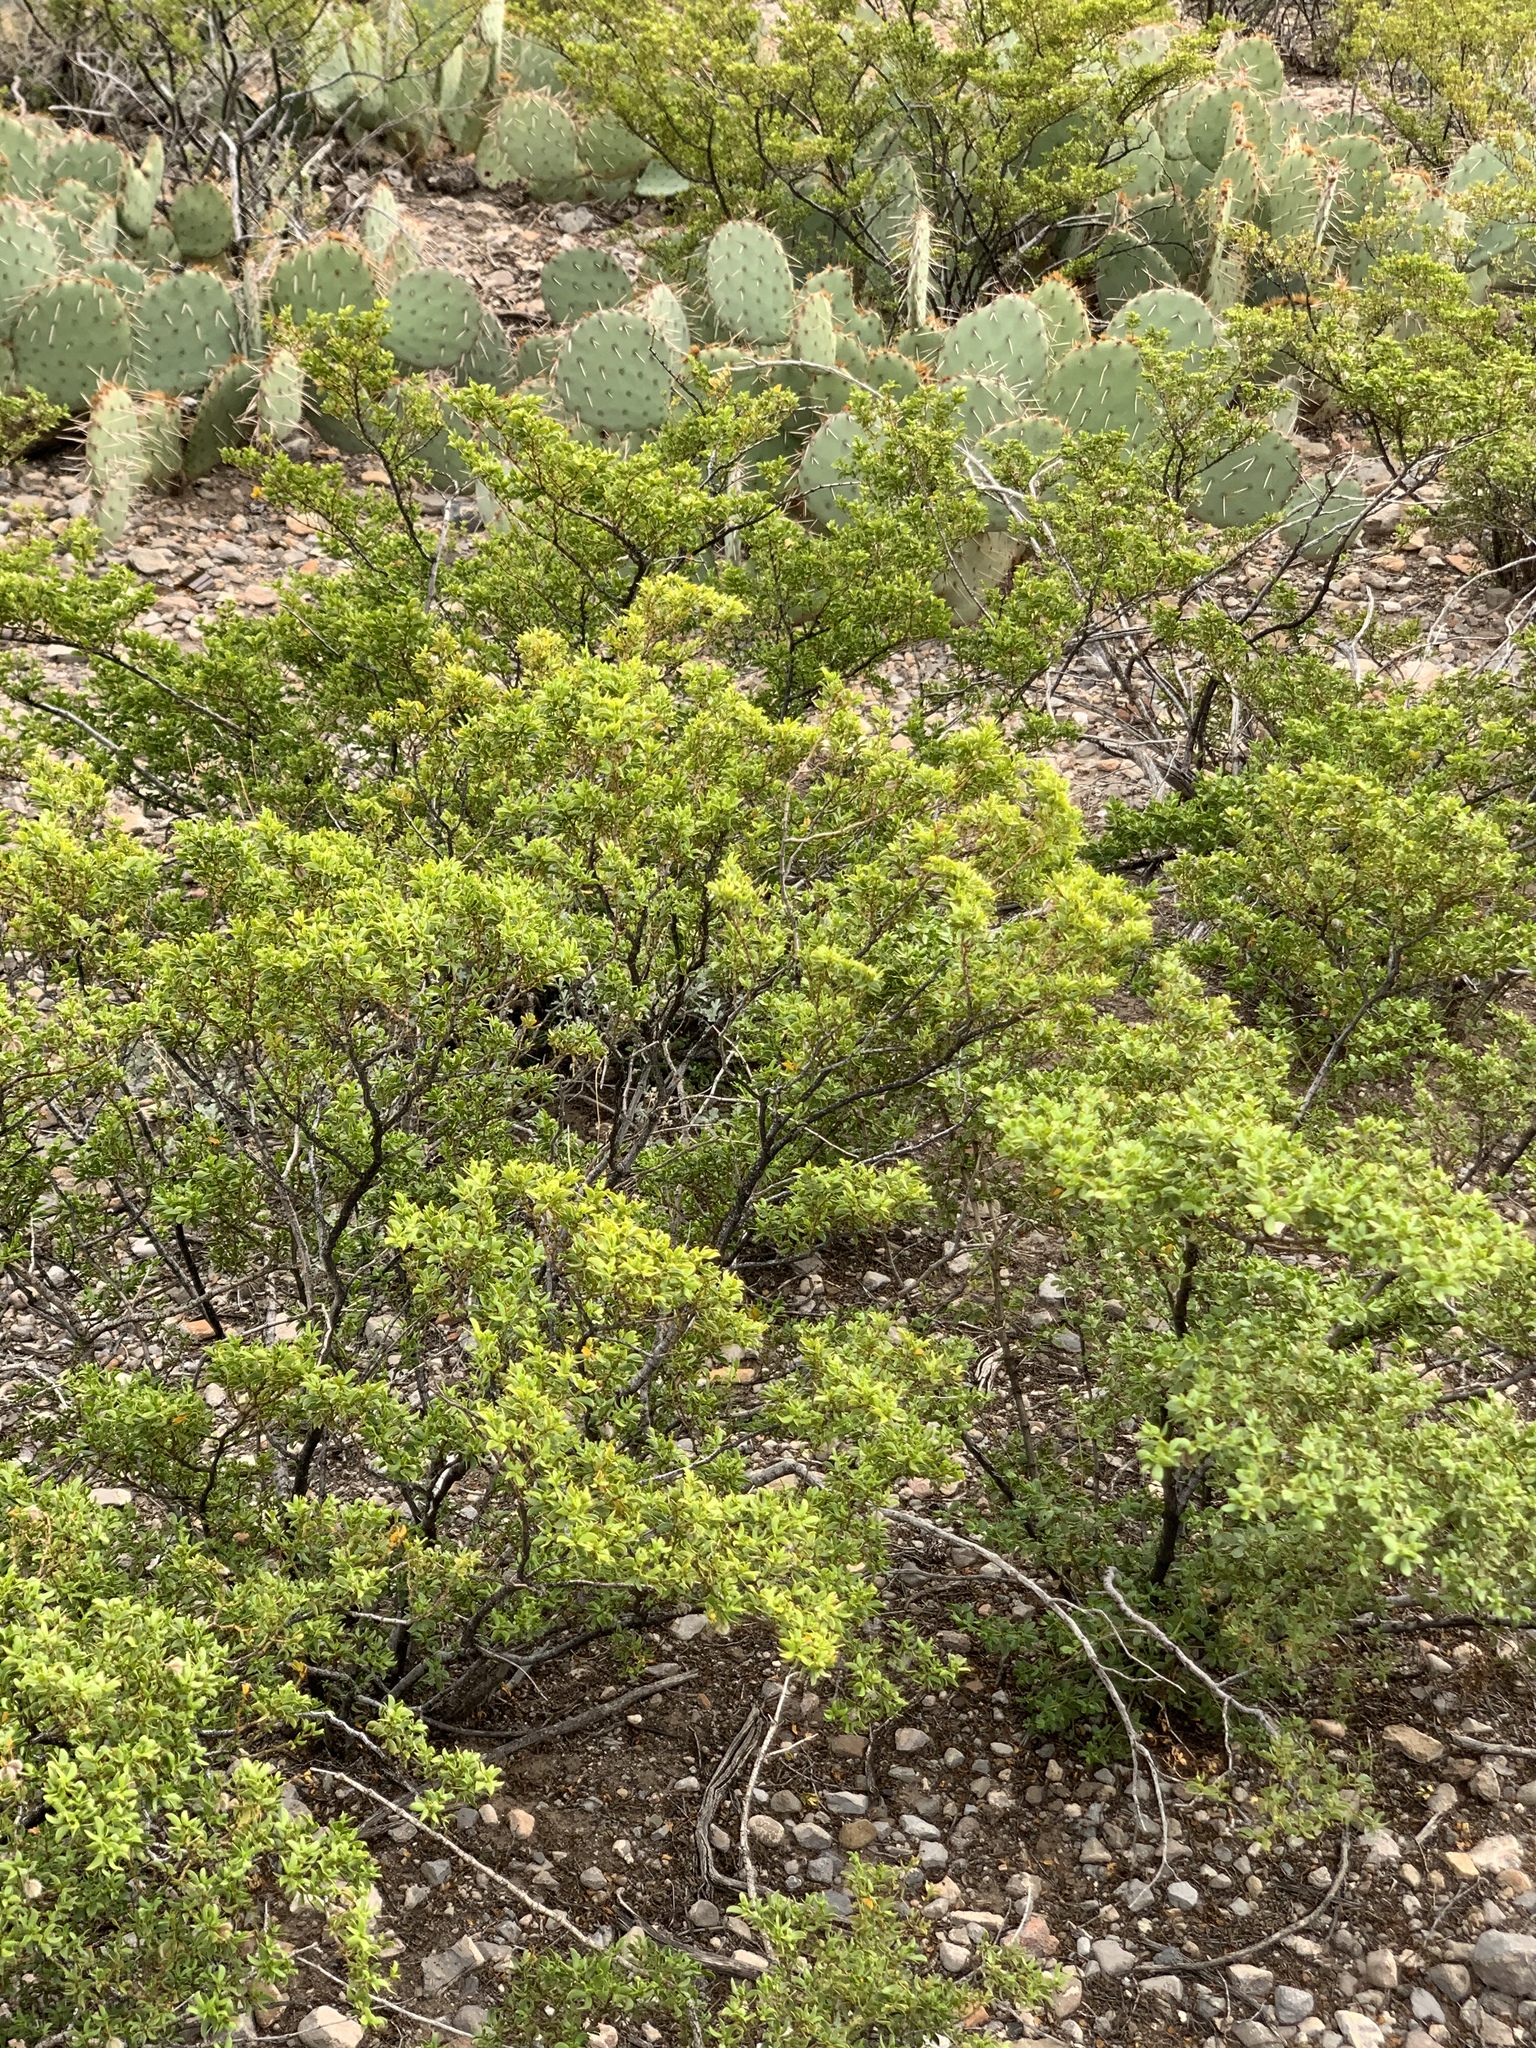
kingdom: Plantae
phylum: Tracheophyta
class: Magnoliopsida
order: Zygophyllales
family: Zygophyllaceae
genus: Larrea
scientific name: Larrea tridentata
